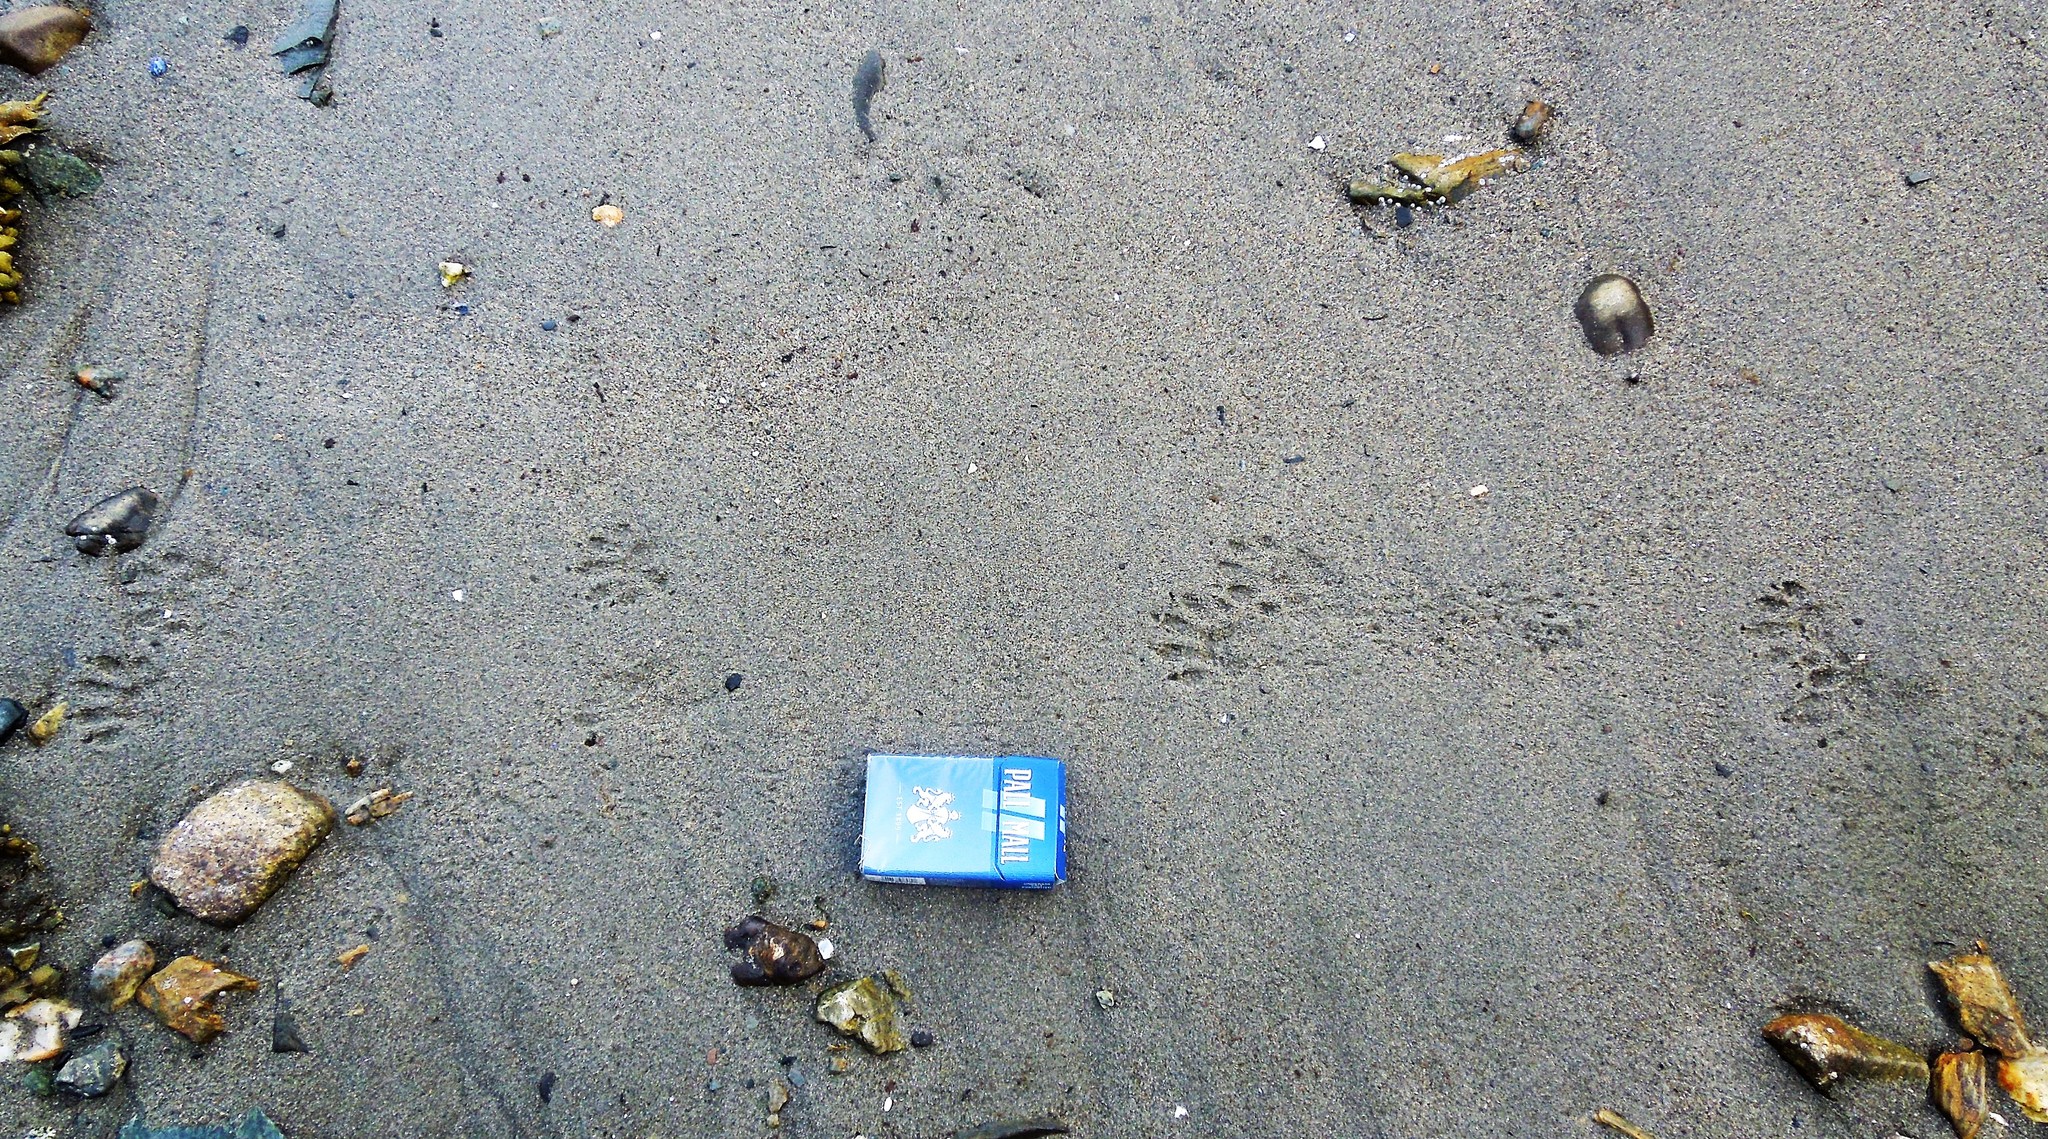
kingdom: Animalia
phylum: Chordata
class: Mammalia
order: Carnivora
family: Procyonidae
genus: Procyon
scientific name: Procyon lotor
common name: Raccoon
